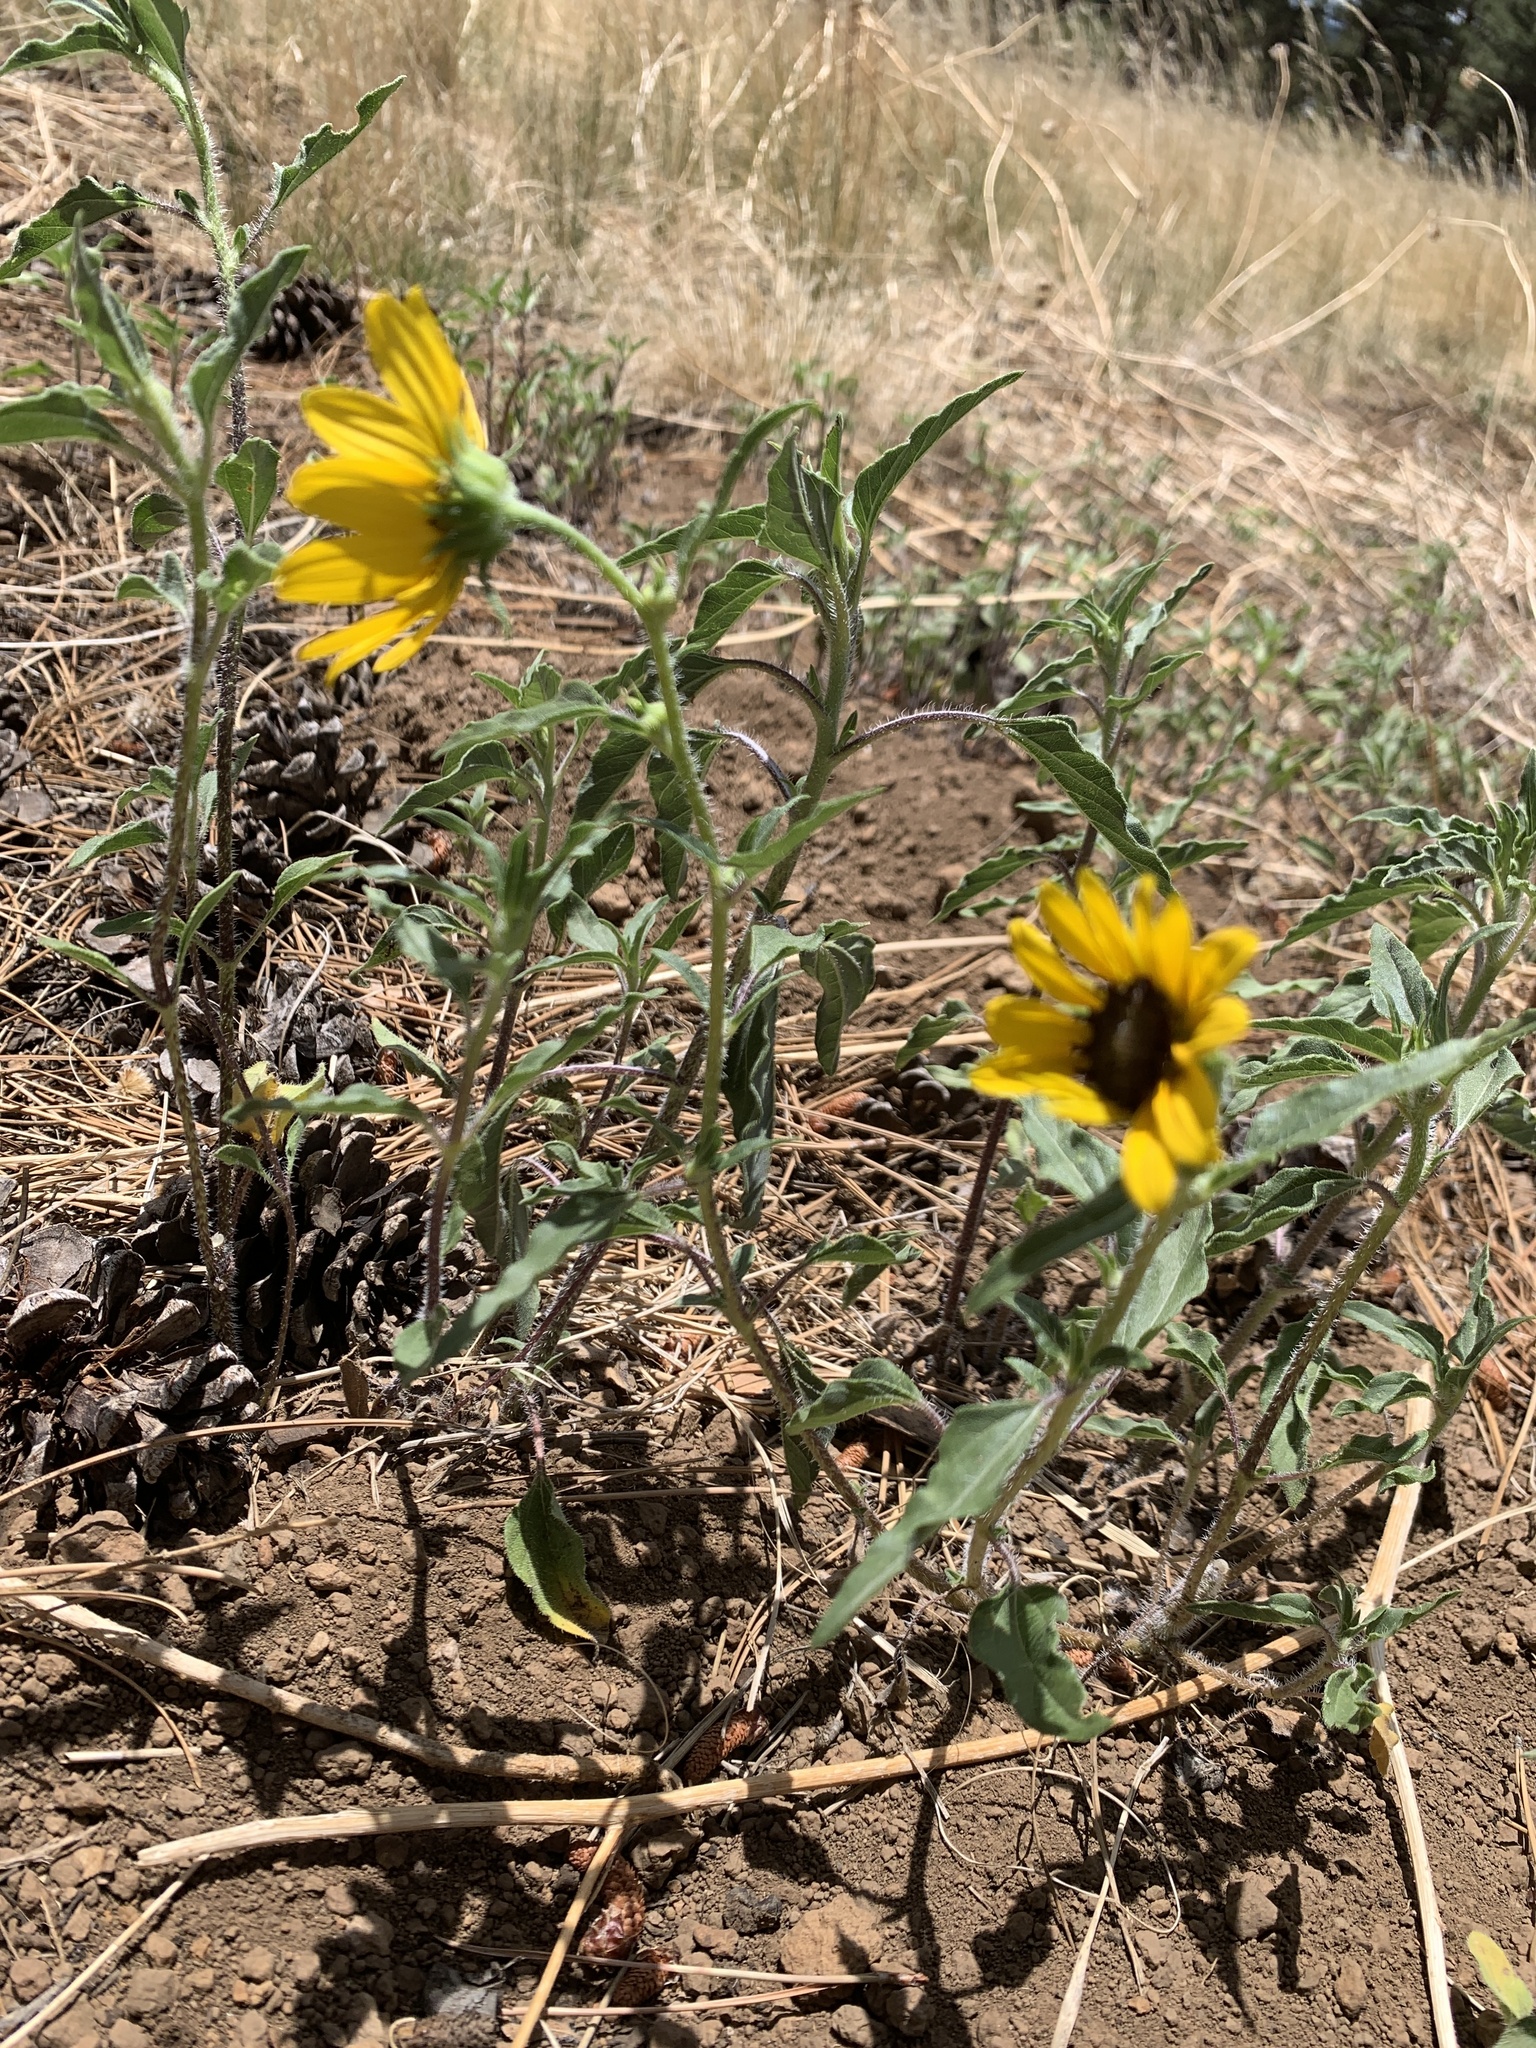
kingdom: Plantae
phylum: Tracheophyta
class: Magnoliopsida
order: Asterales
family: Asteraceae
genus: Helianthus
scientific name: Helianthus petiolaris
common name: Lesser sunflower
